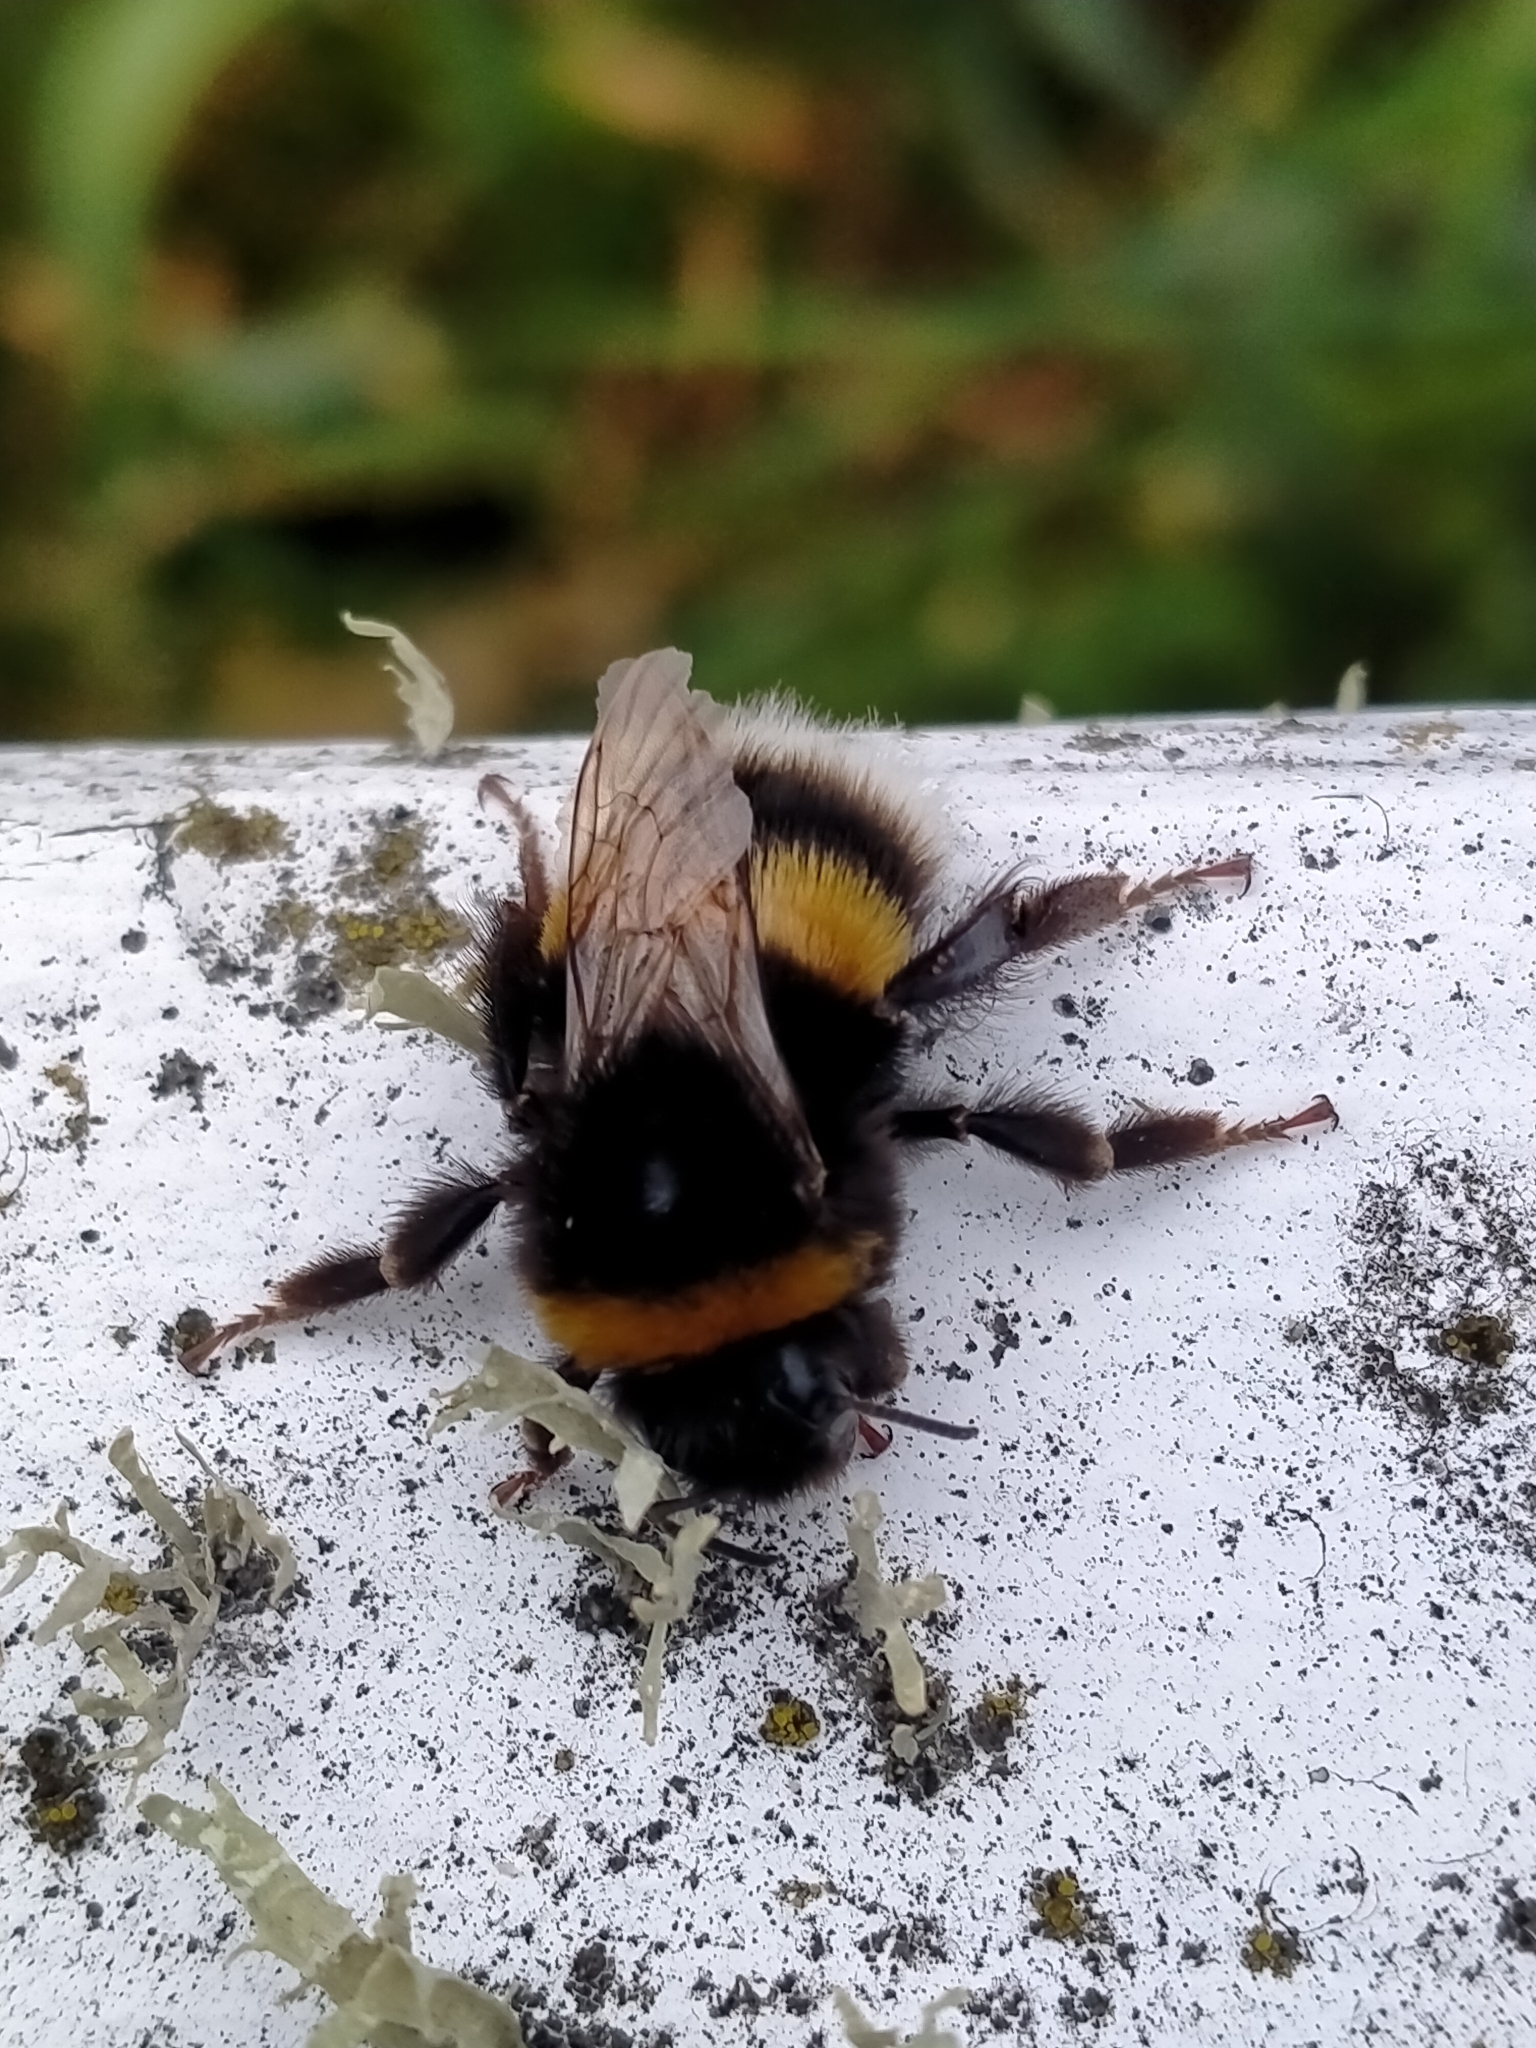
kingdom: Animalia
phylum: Arthropoda
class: Insecta
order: Hymenoptera
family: Apidae
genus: Bombus
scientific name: Bombus terrestris
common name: Buff-tailed bumblebee
